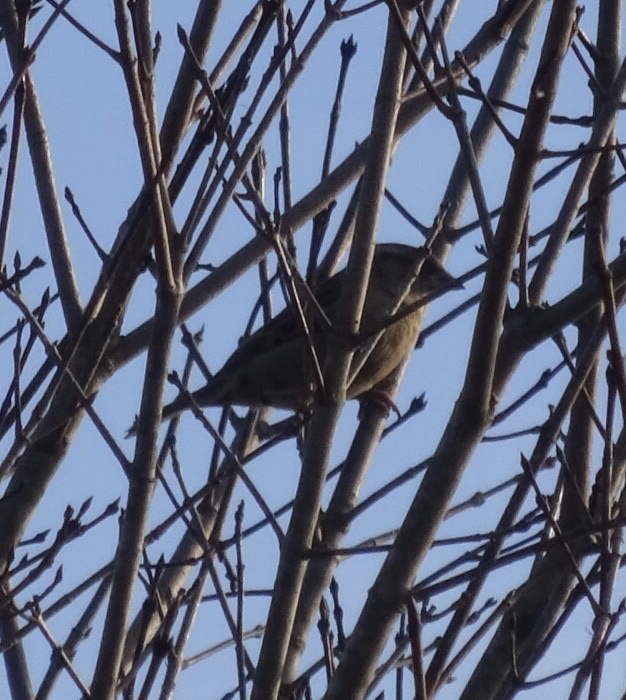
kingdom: Animalia
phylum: Chordata
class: Aves
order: Passeriformes
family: Passeridae
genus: Passer
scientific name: Passer domesticus
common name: House sparrow
